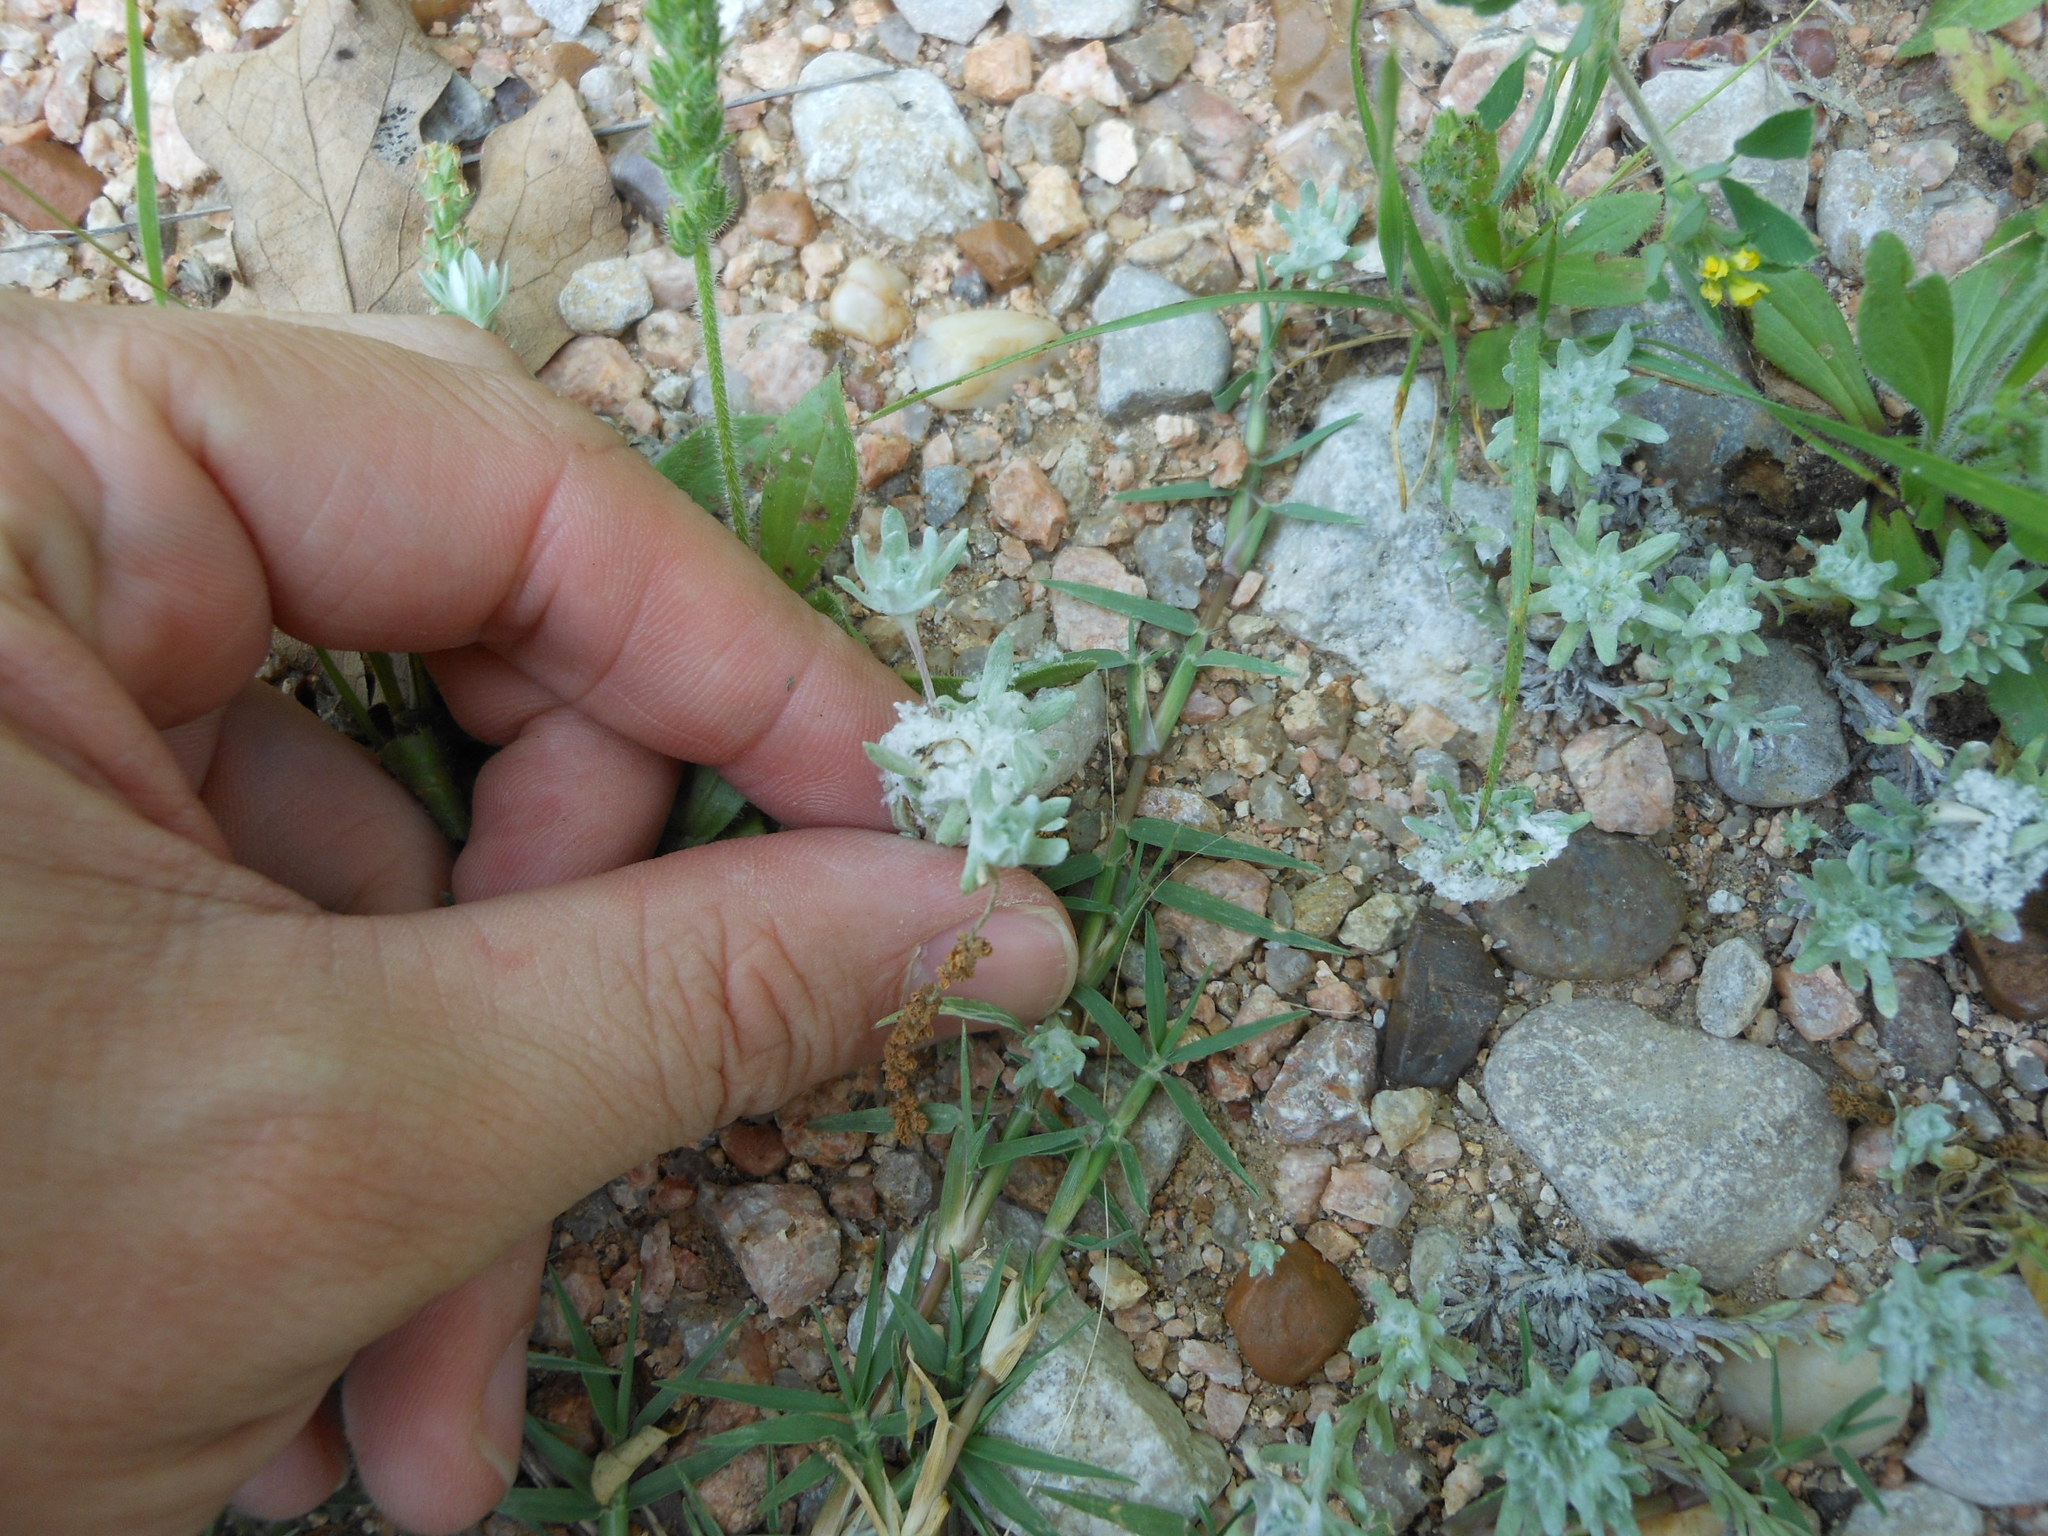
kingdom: Plantae
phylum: Tracheophyta
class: Magnoliopsida
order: Asterales
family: Asteraceae
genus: Diaperia
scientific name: Diaperia prolifera
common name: Big-head rabbit-tobacco
